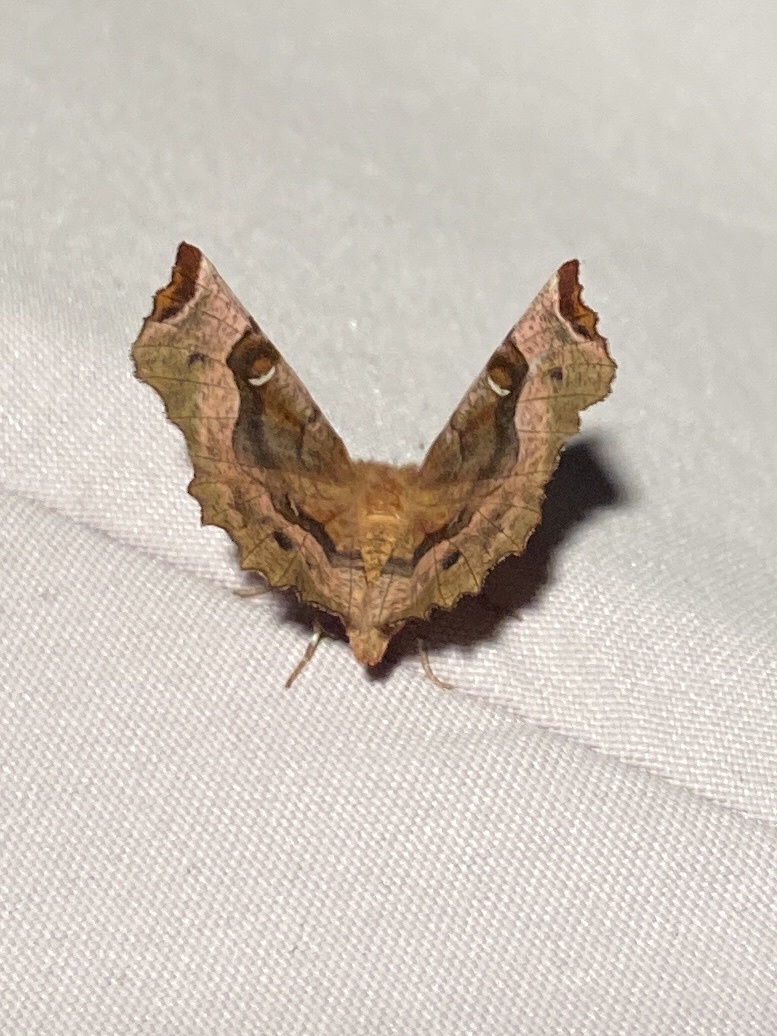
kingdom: Animalia
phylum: Arthropoda
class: Insecta
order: Lepidoptera
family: Geometridae
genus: Selenia
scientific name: Selenia tetralunaria
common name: Purple thorn
